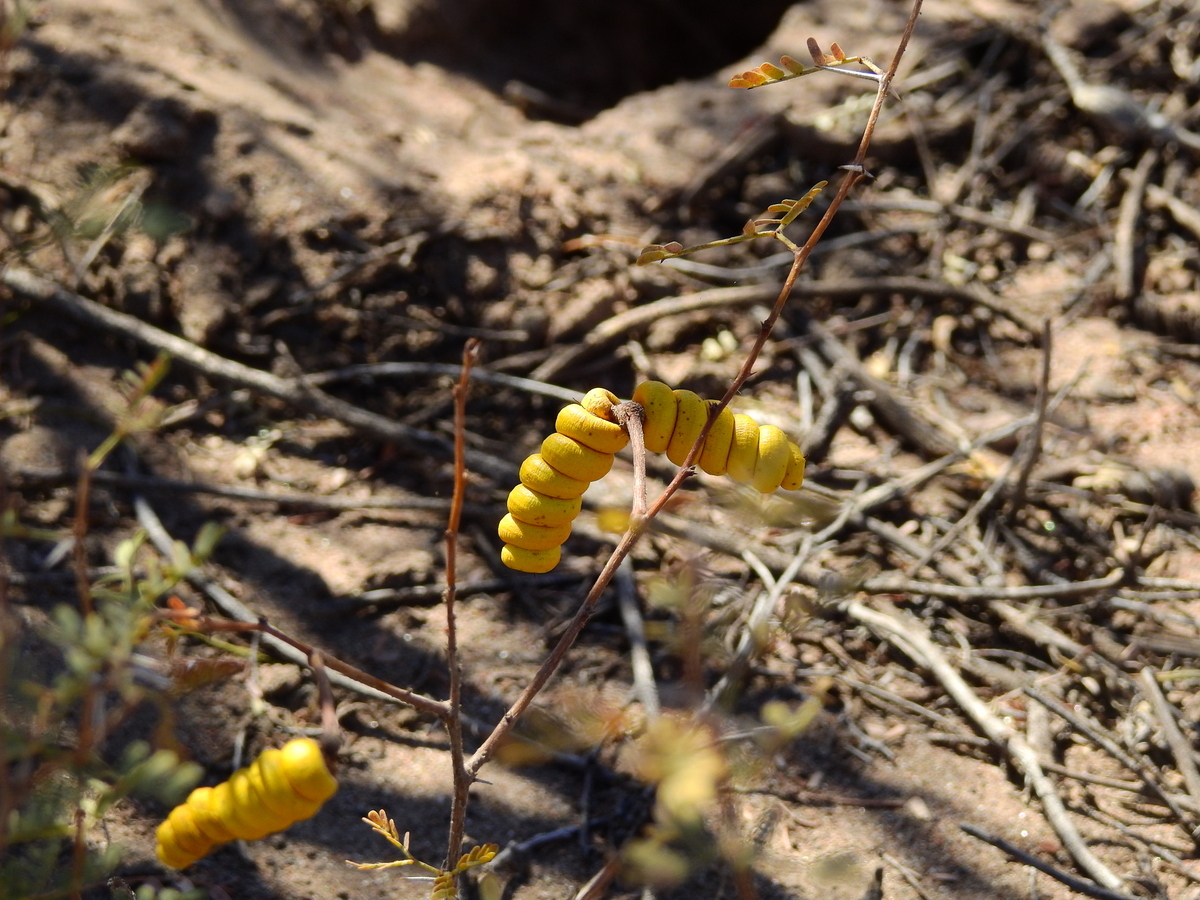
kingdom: Plantae
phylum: Tracheophyta
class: Magnoliopsida
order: Fabales
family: Fabaceae
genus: Prosopis
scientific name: Prosopis strombulifera
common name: Creeping mesquite
